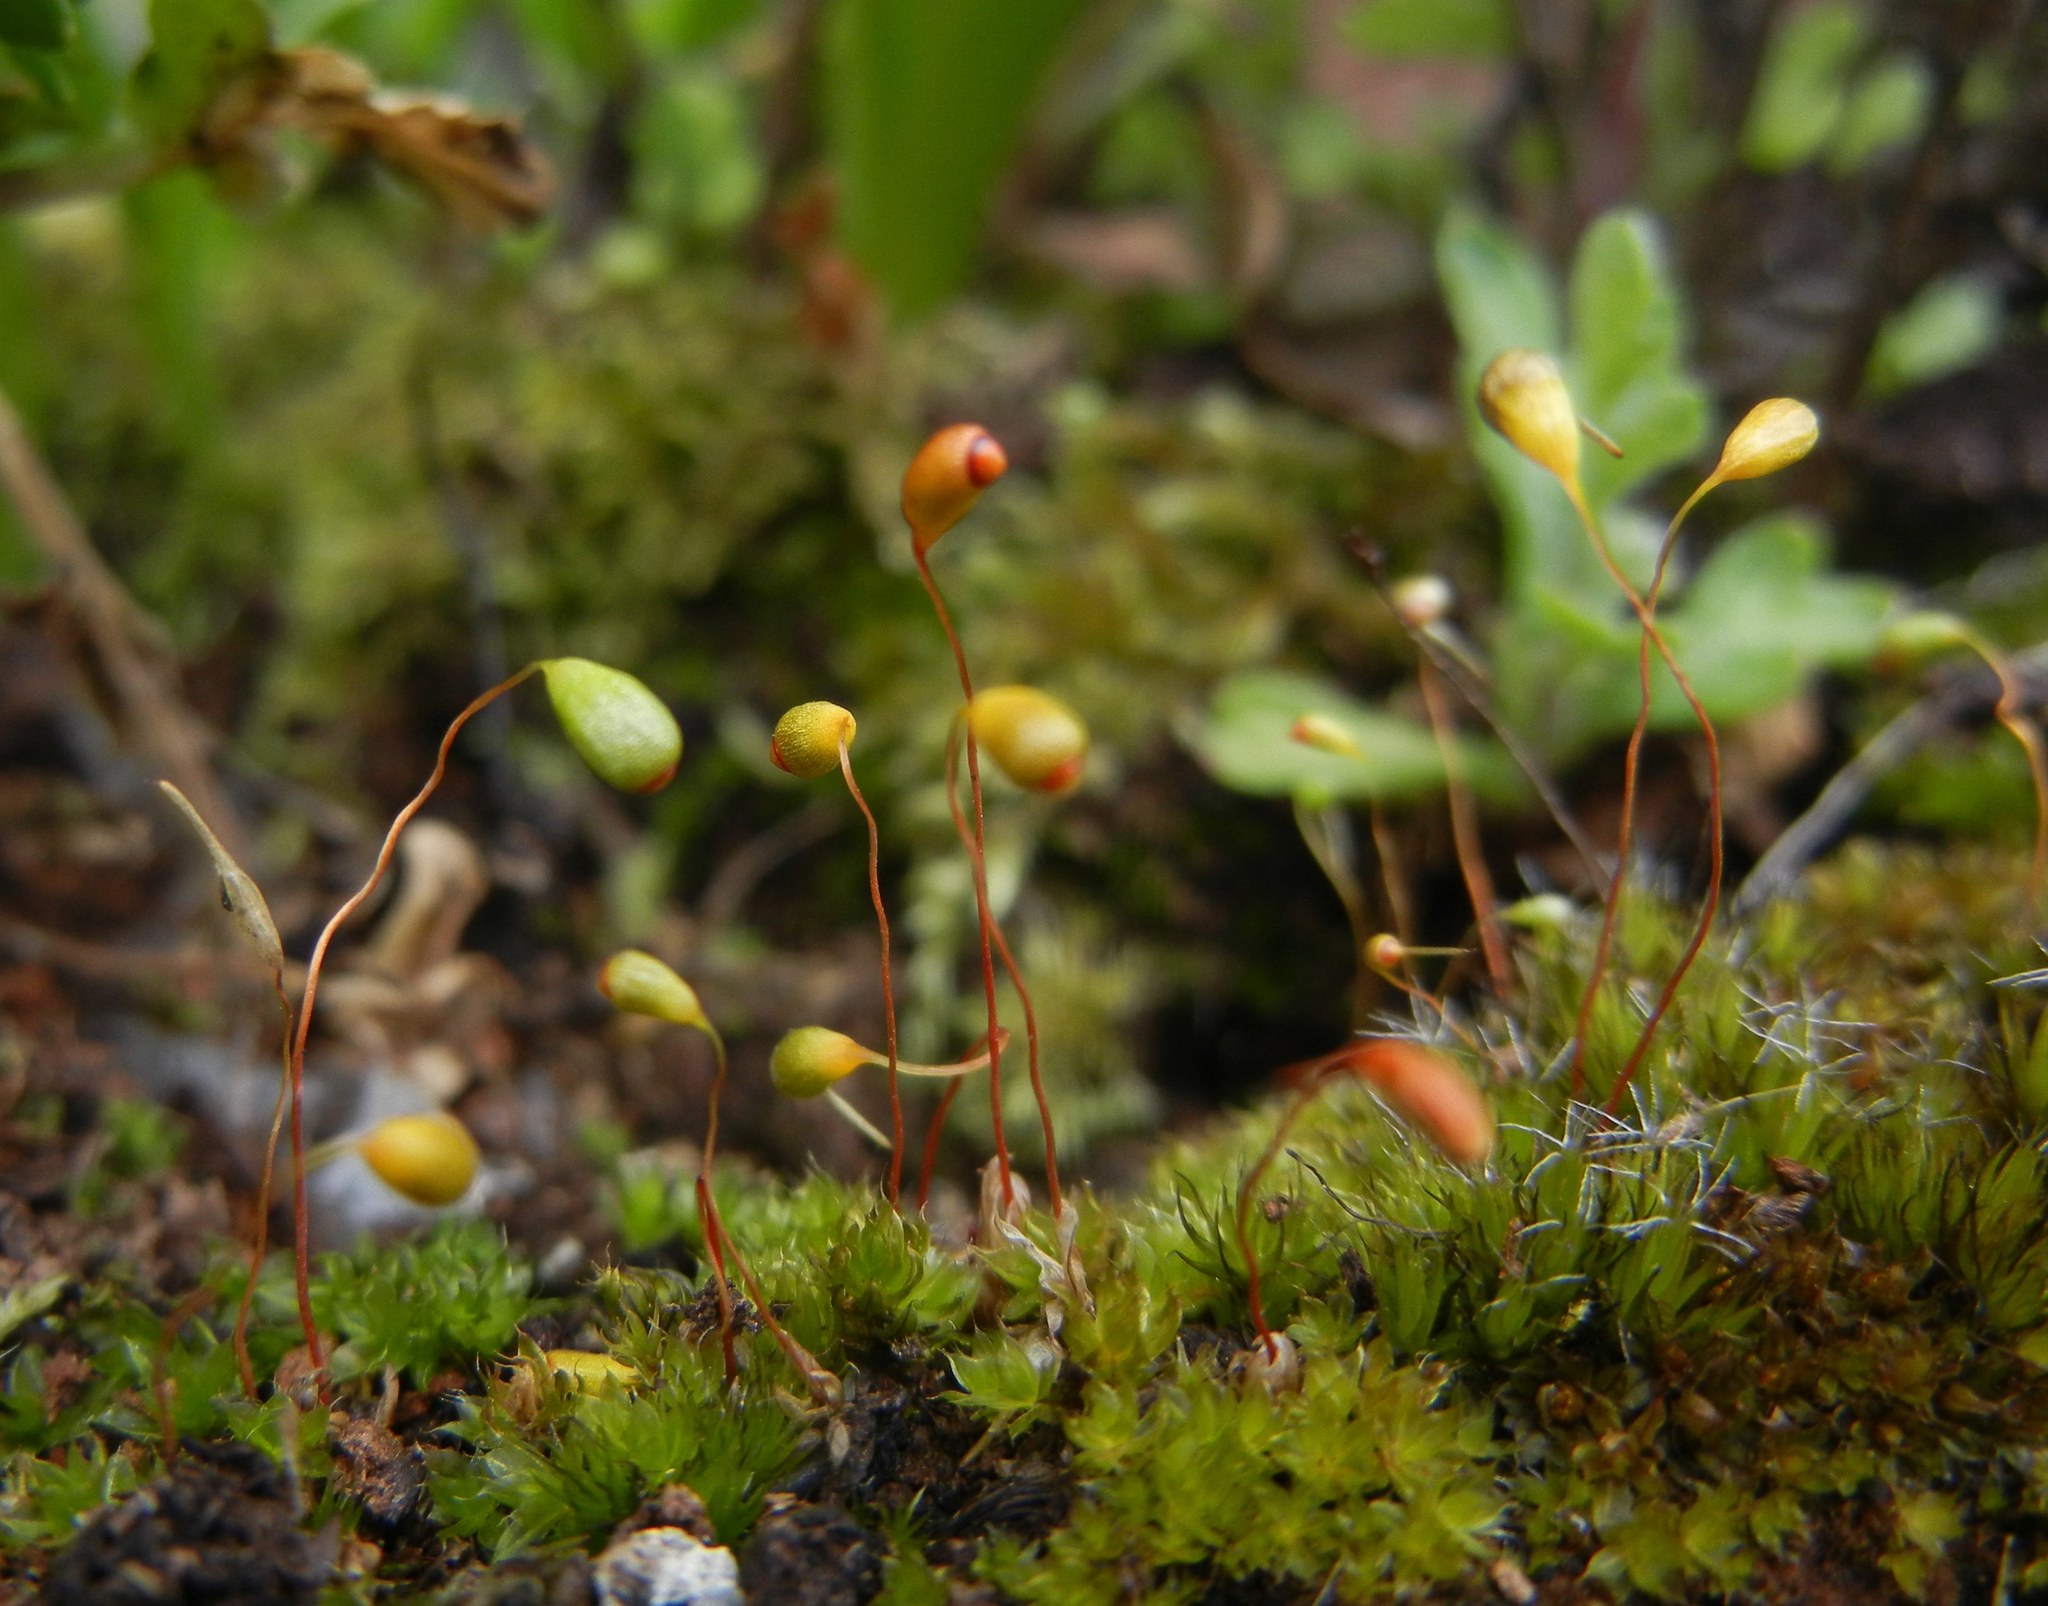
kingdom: Plantae
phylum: Bryophyta
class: Bryopsida
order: Funariales
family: Funariaceae
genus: Funaria
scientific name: Funaria hygrometrica
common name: Common cord moss
